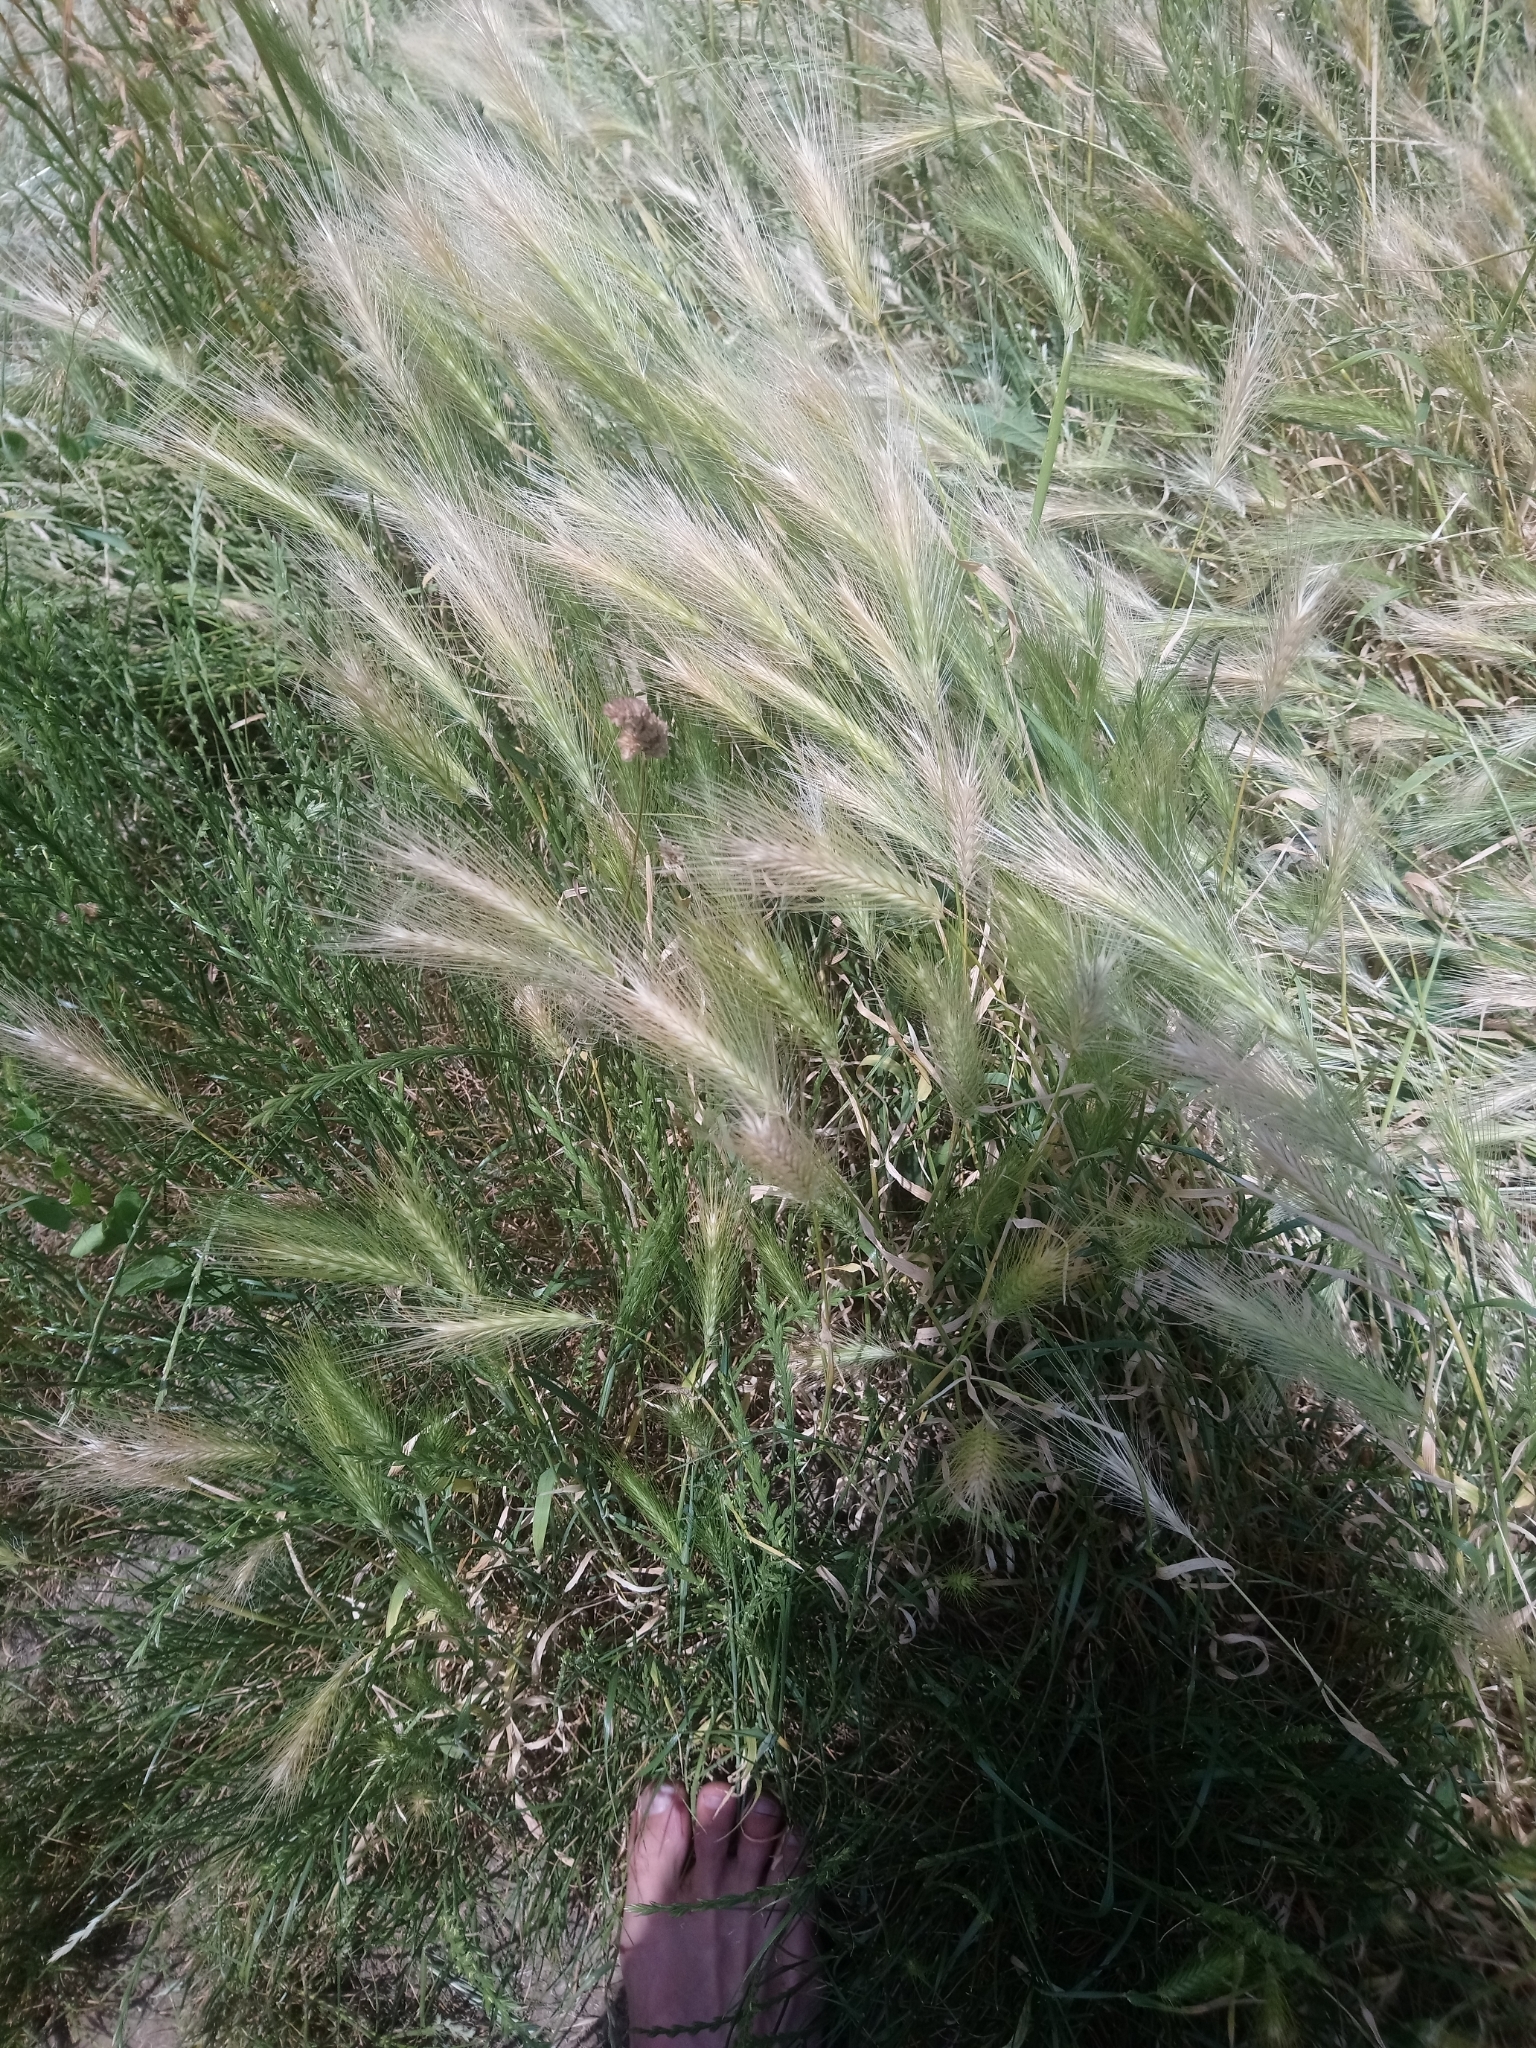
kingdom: Plantae
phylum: Tracheophyta
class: Liliopsida
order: Poales
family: Poaceae
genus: Hordeum
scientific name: Hordeum murinum
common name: Wall barley
